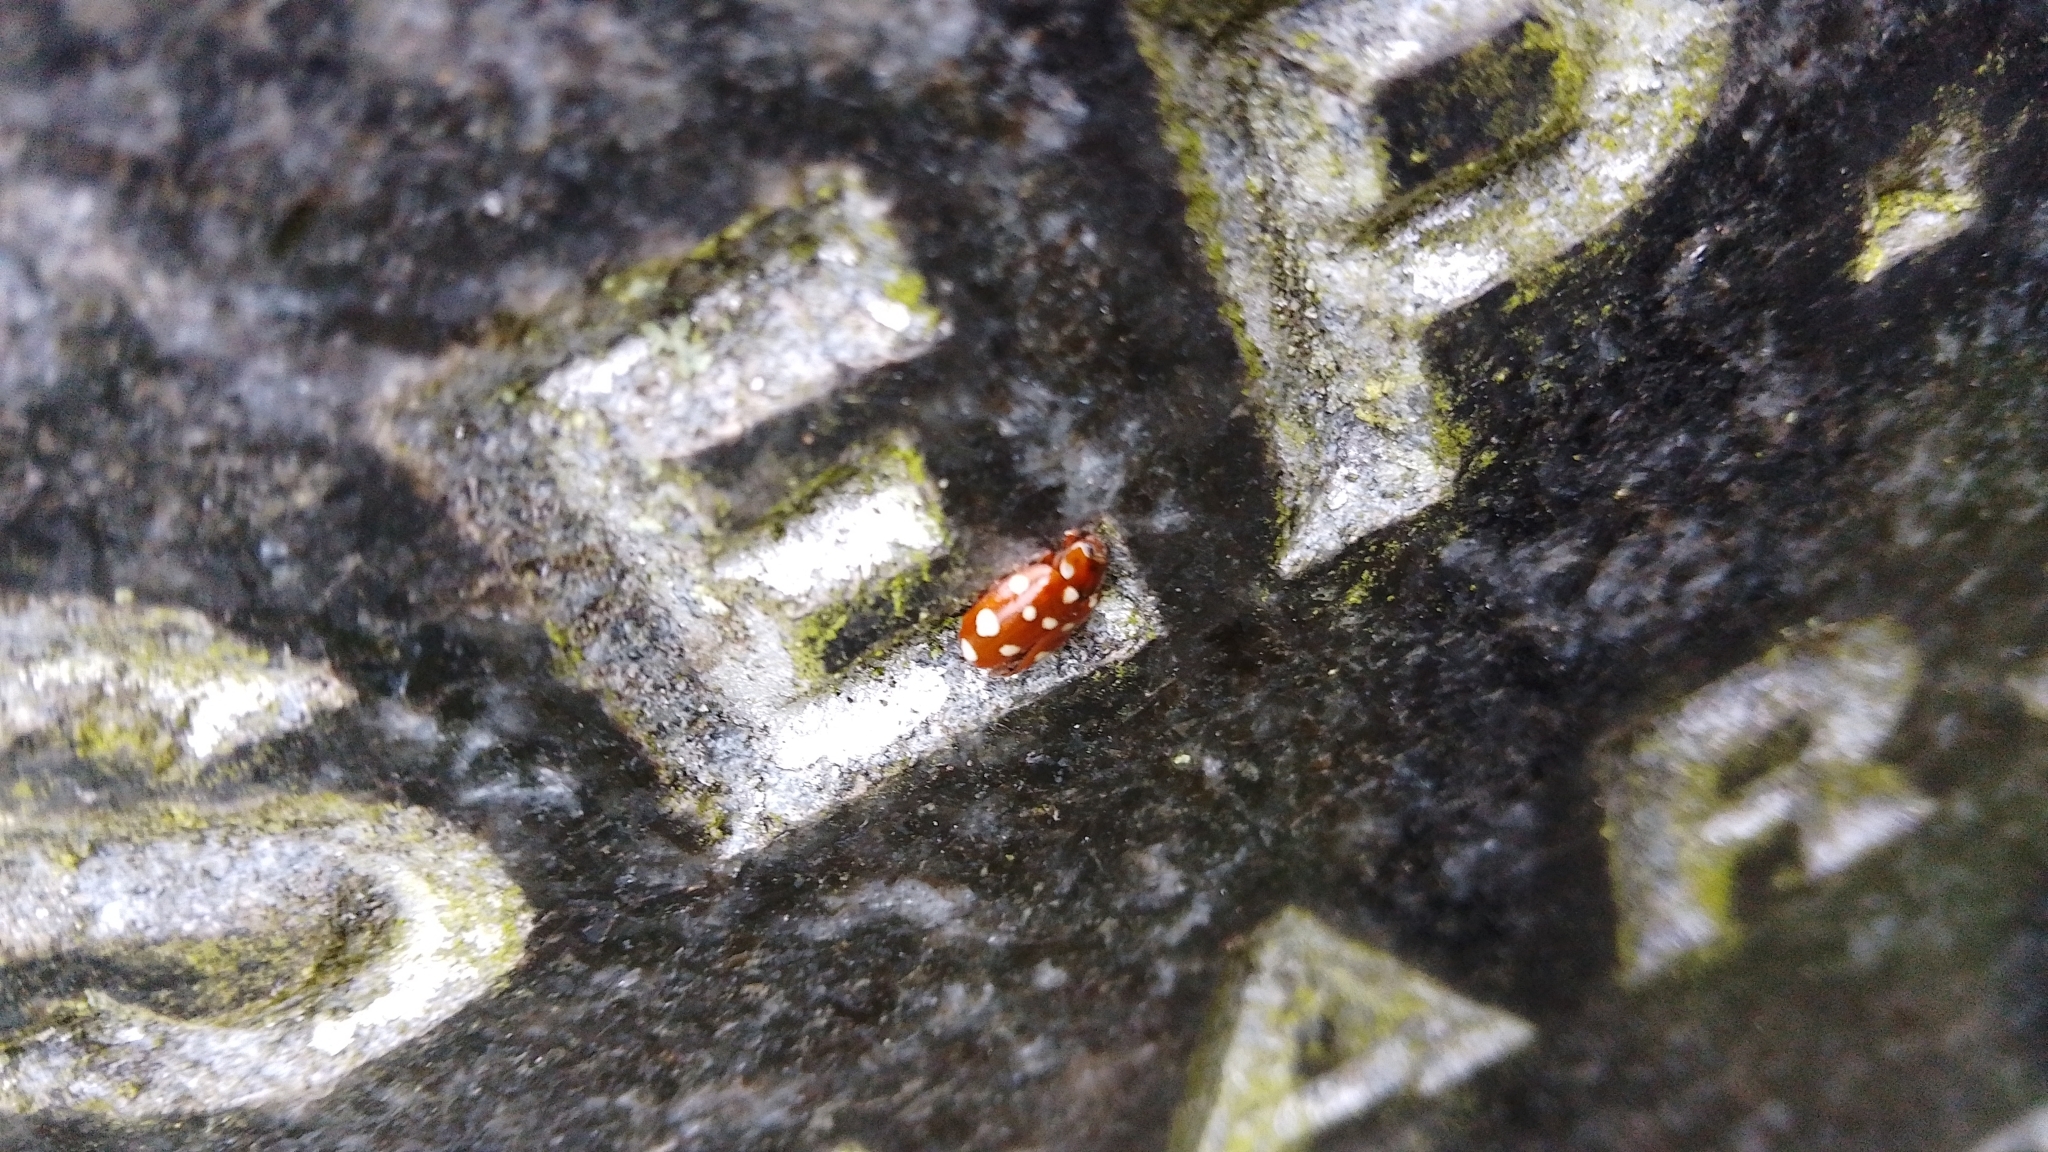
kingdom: Animalia
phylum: Arthropoda
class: Insecta
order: Coleoptera
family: Coccinellidae
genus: Calvia
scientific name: Calvia quatuordecimguttata
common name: Cream-spot ladybird
